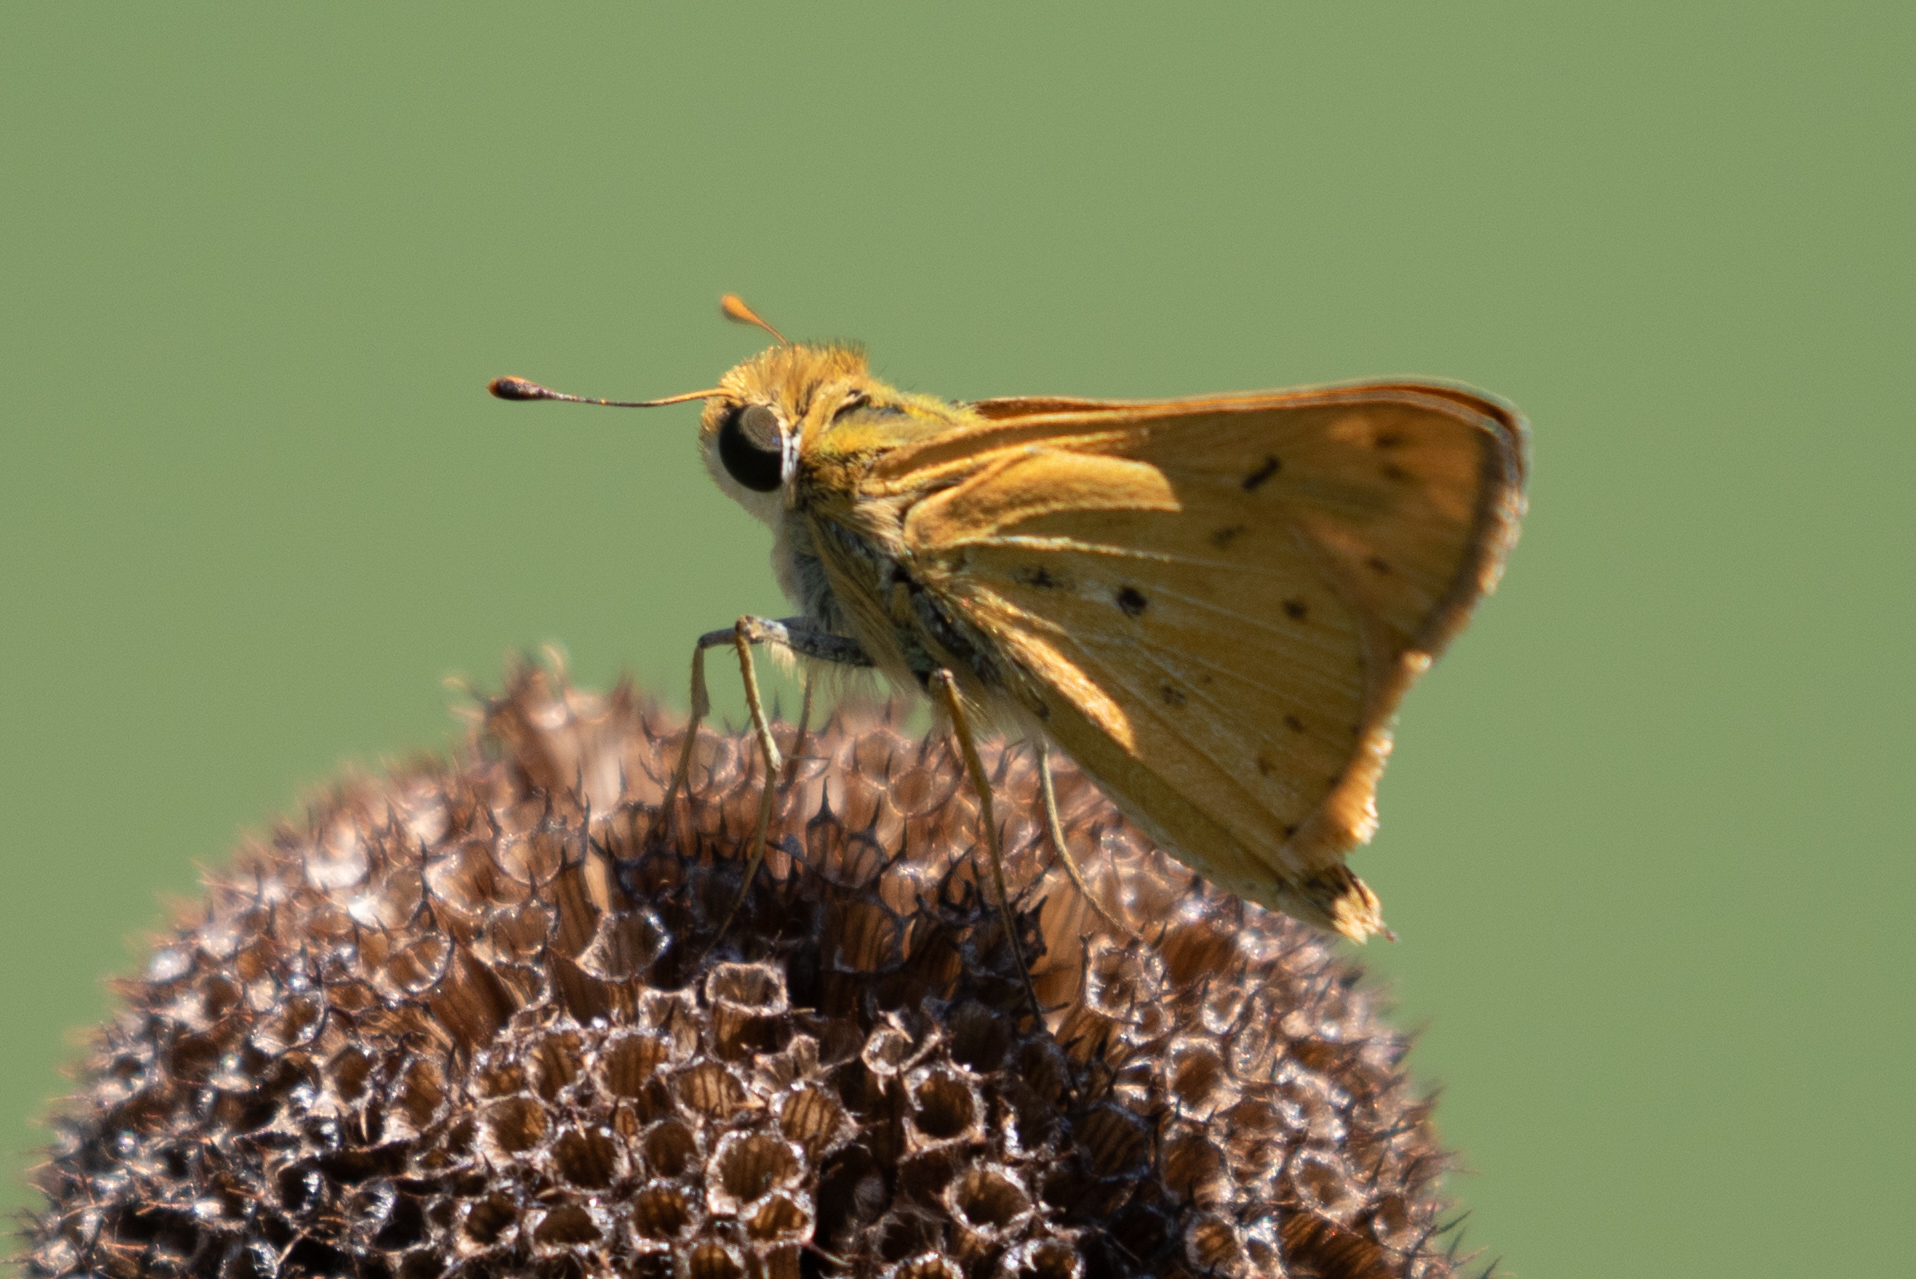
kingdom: Animalia
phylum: Arthropoda
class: Insecta
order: Lepidoptera
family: Hesperiidae
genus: Hylephila
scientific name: Hylephila phyleus
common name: Fiery skipper
